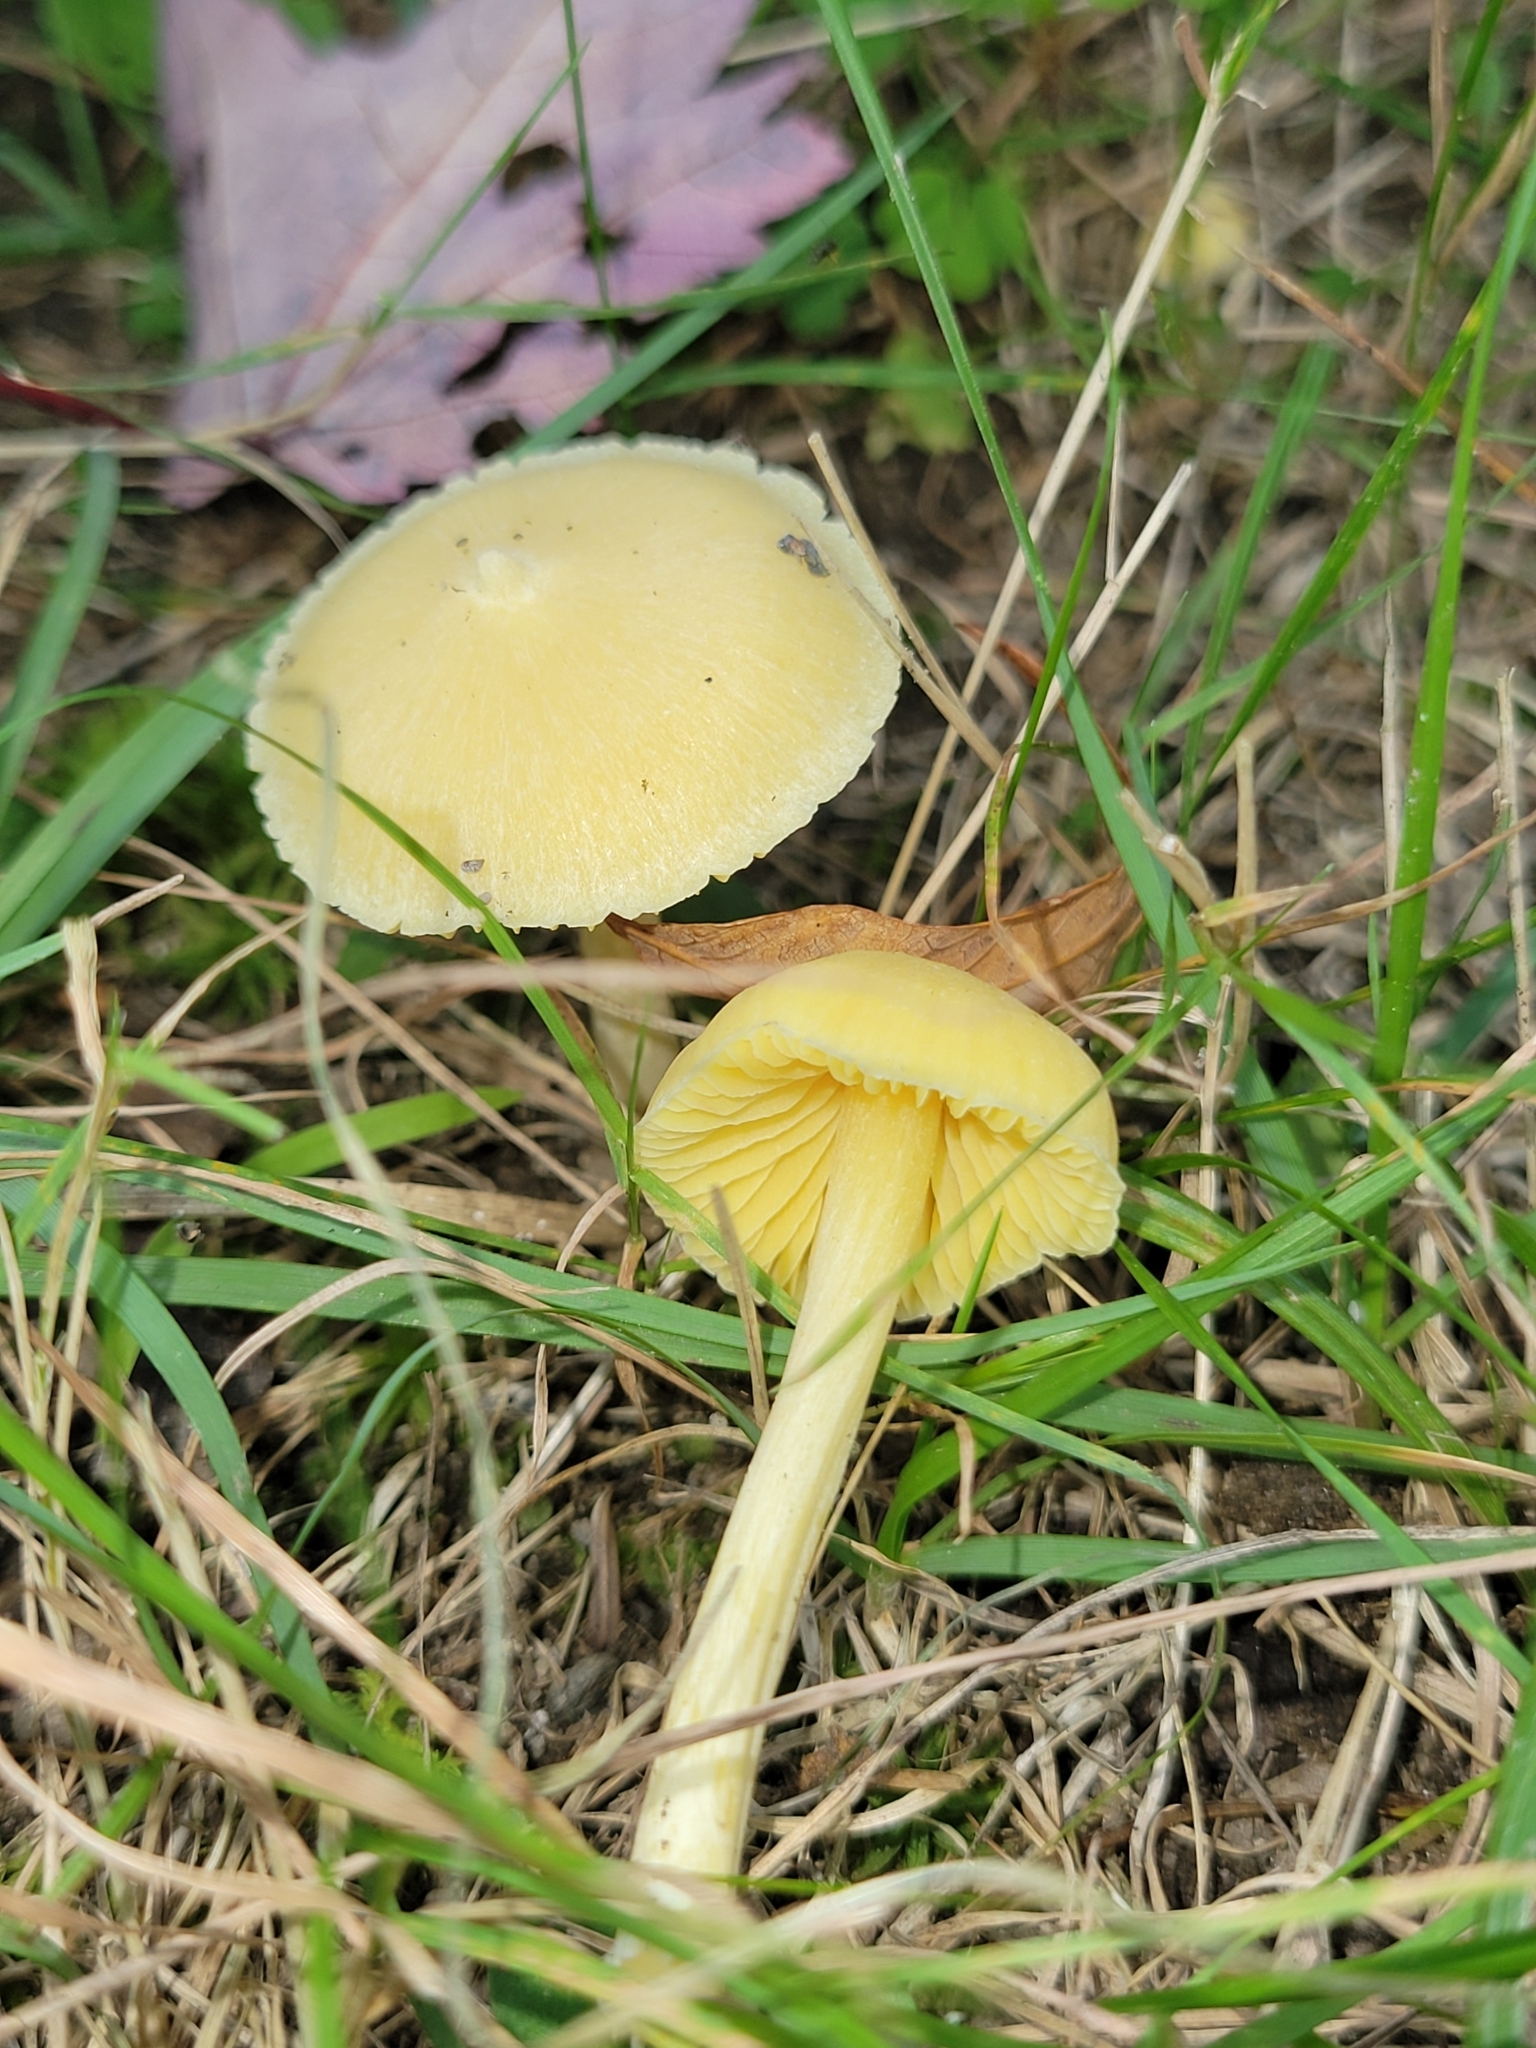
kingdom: Fungi
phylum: Basidiomycota
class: Agaricomycetes
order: Agaricales
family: Entolomataceae
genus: Entoloma
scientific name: Entoloma murrayi
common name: Yellow unicorn entoloma
